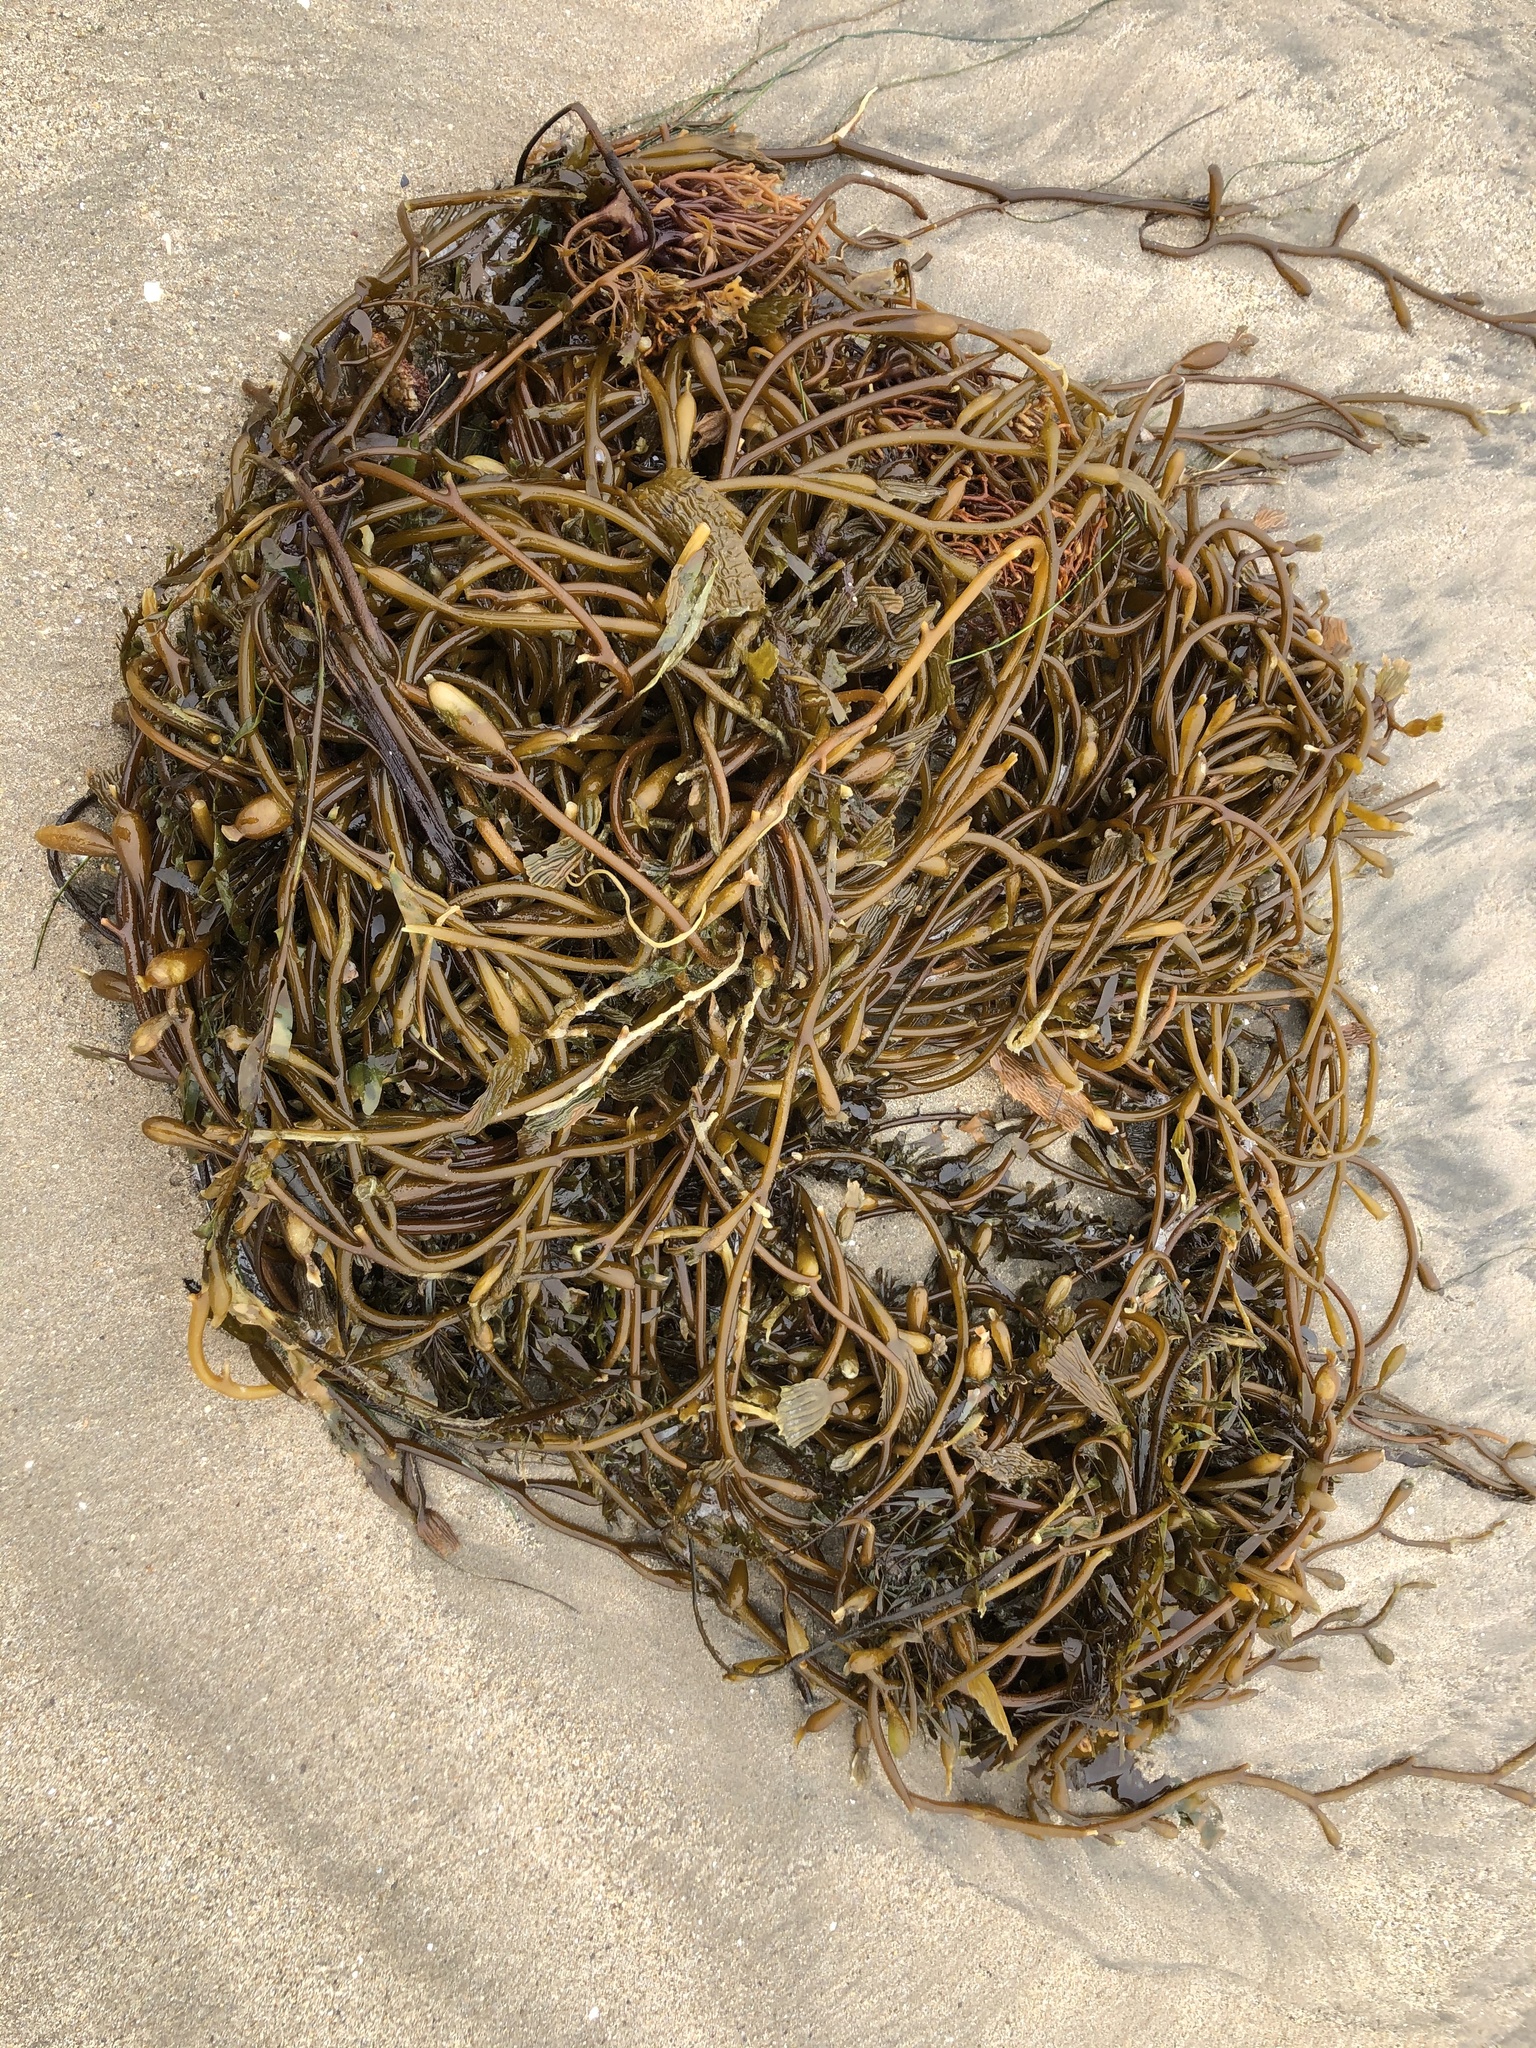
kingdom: Chromista
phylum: Ochrophyta
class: Phaeophyceae
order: Laminariales
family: Laminariaceae
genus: Macrocystis
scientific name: Macrocystis pyrifera
